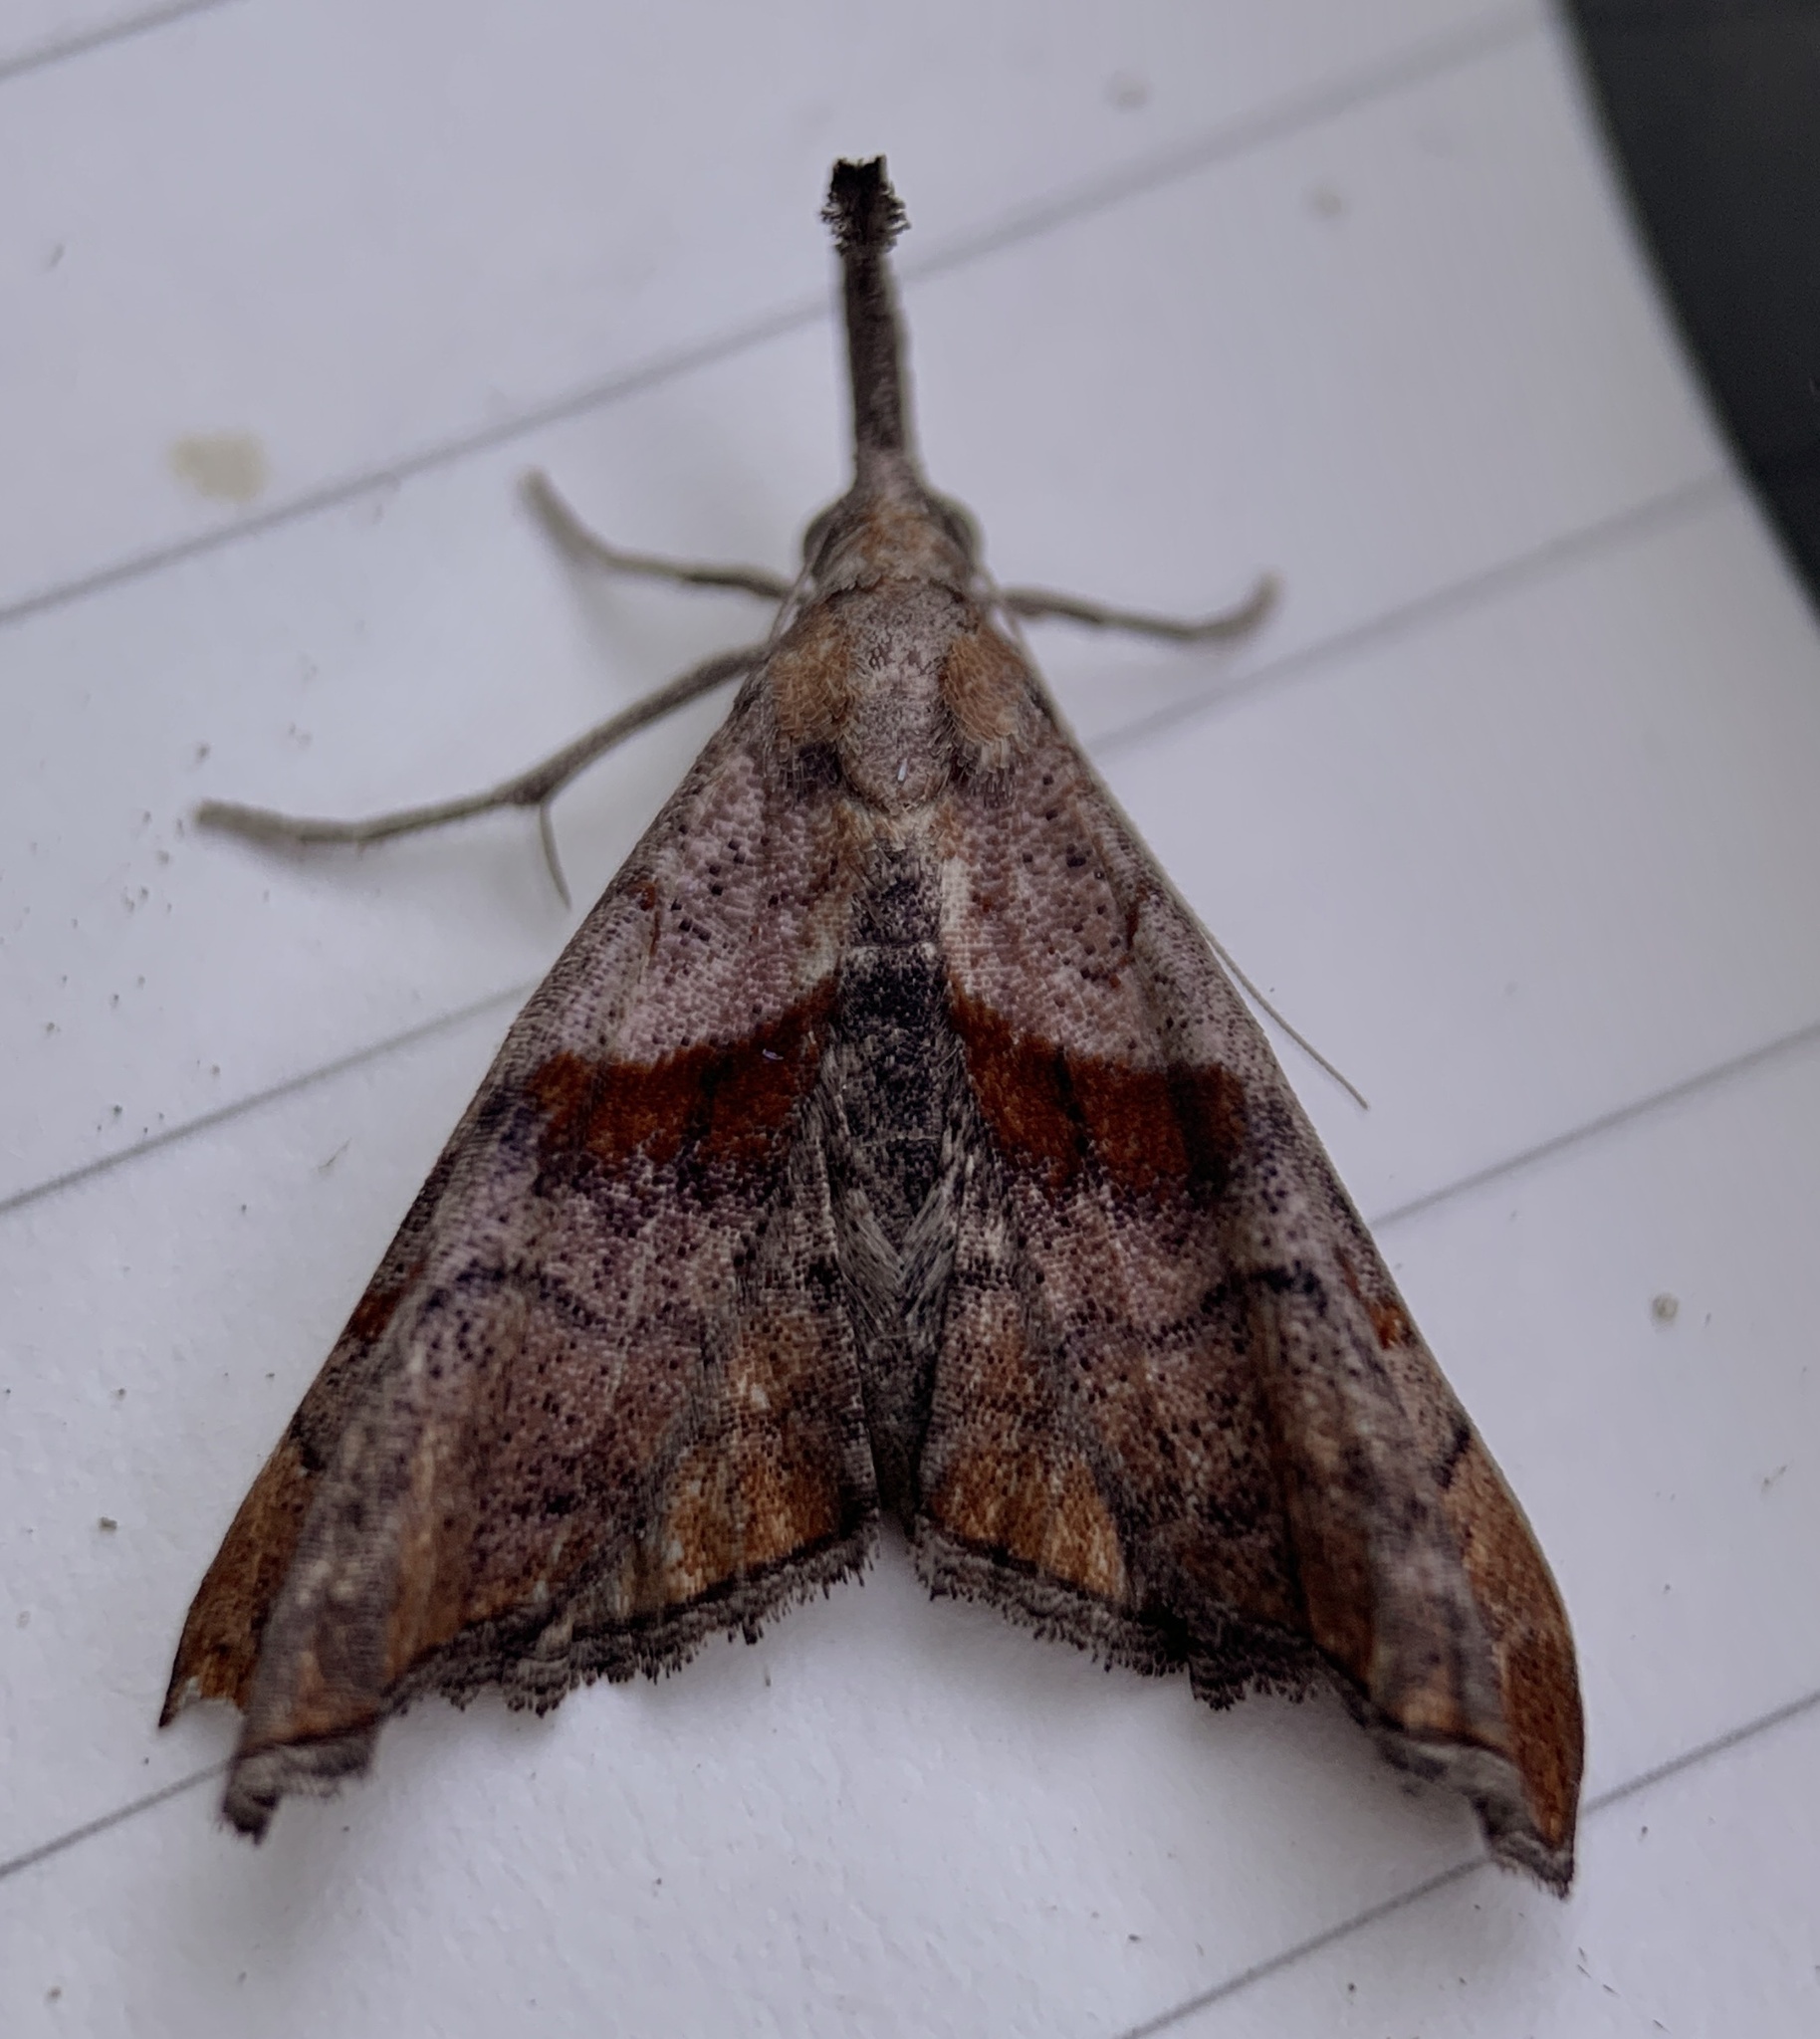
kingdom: Animalia
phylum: Arthropoda
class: Insecta
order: Lepidoptera
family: Erebidae
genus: Palthis
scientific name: Palthis angulalis
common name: Dark-spotted palthis moth
